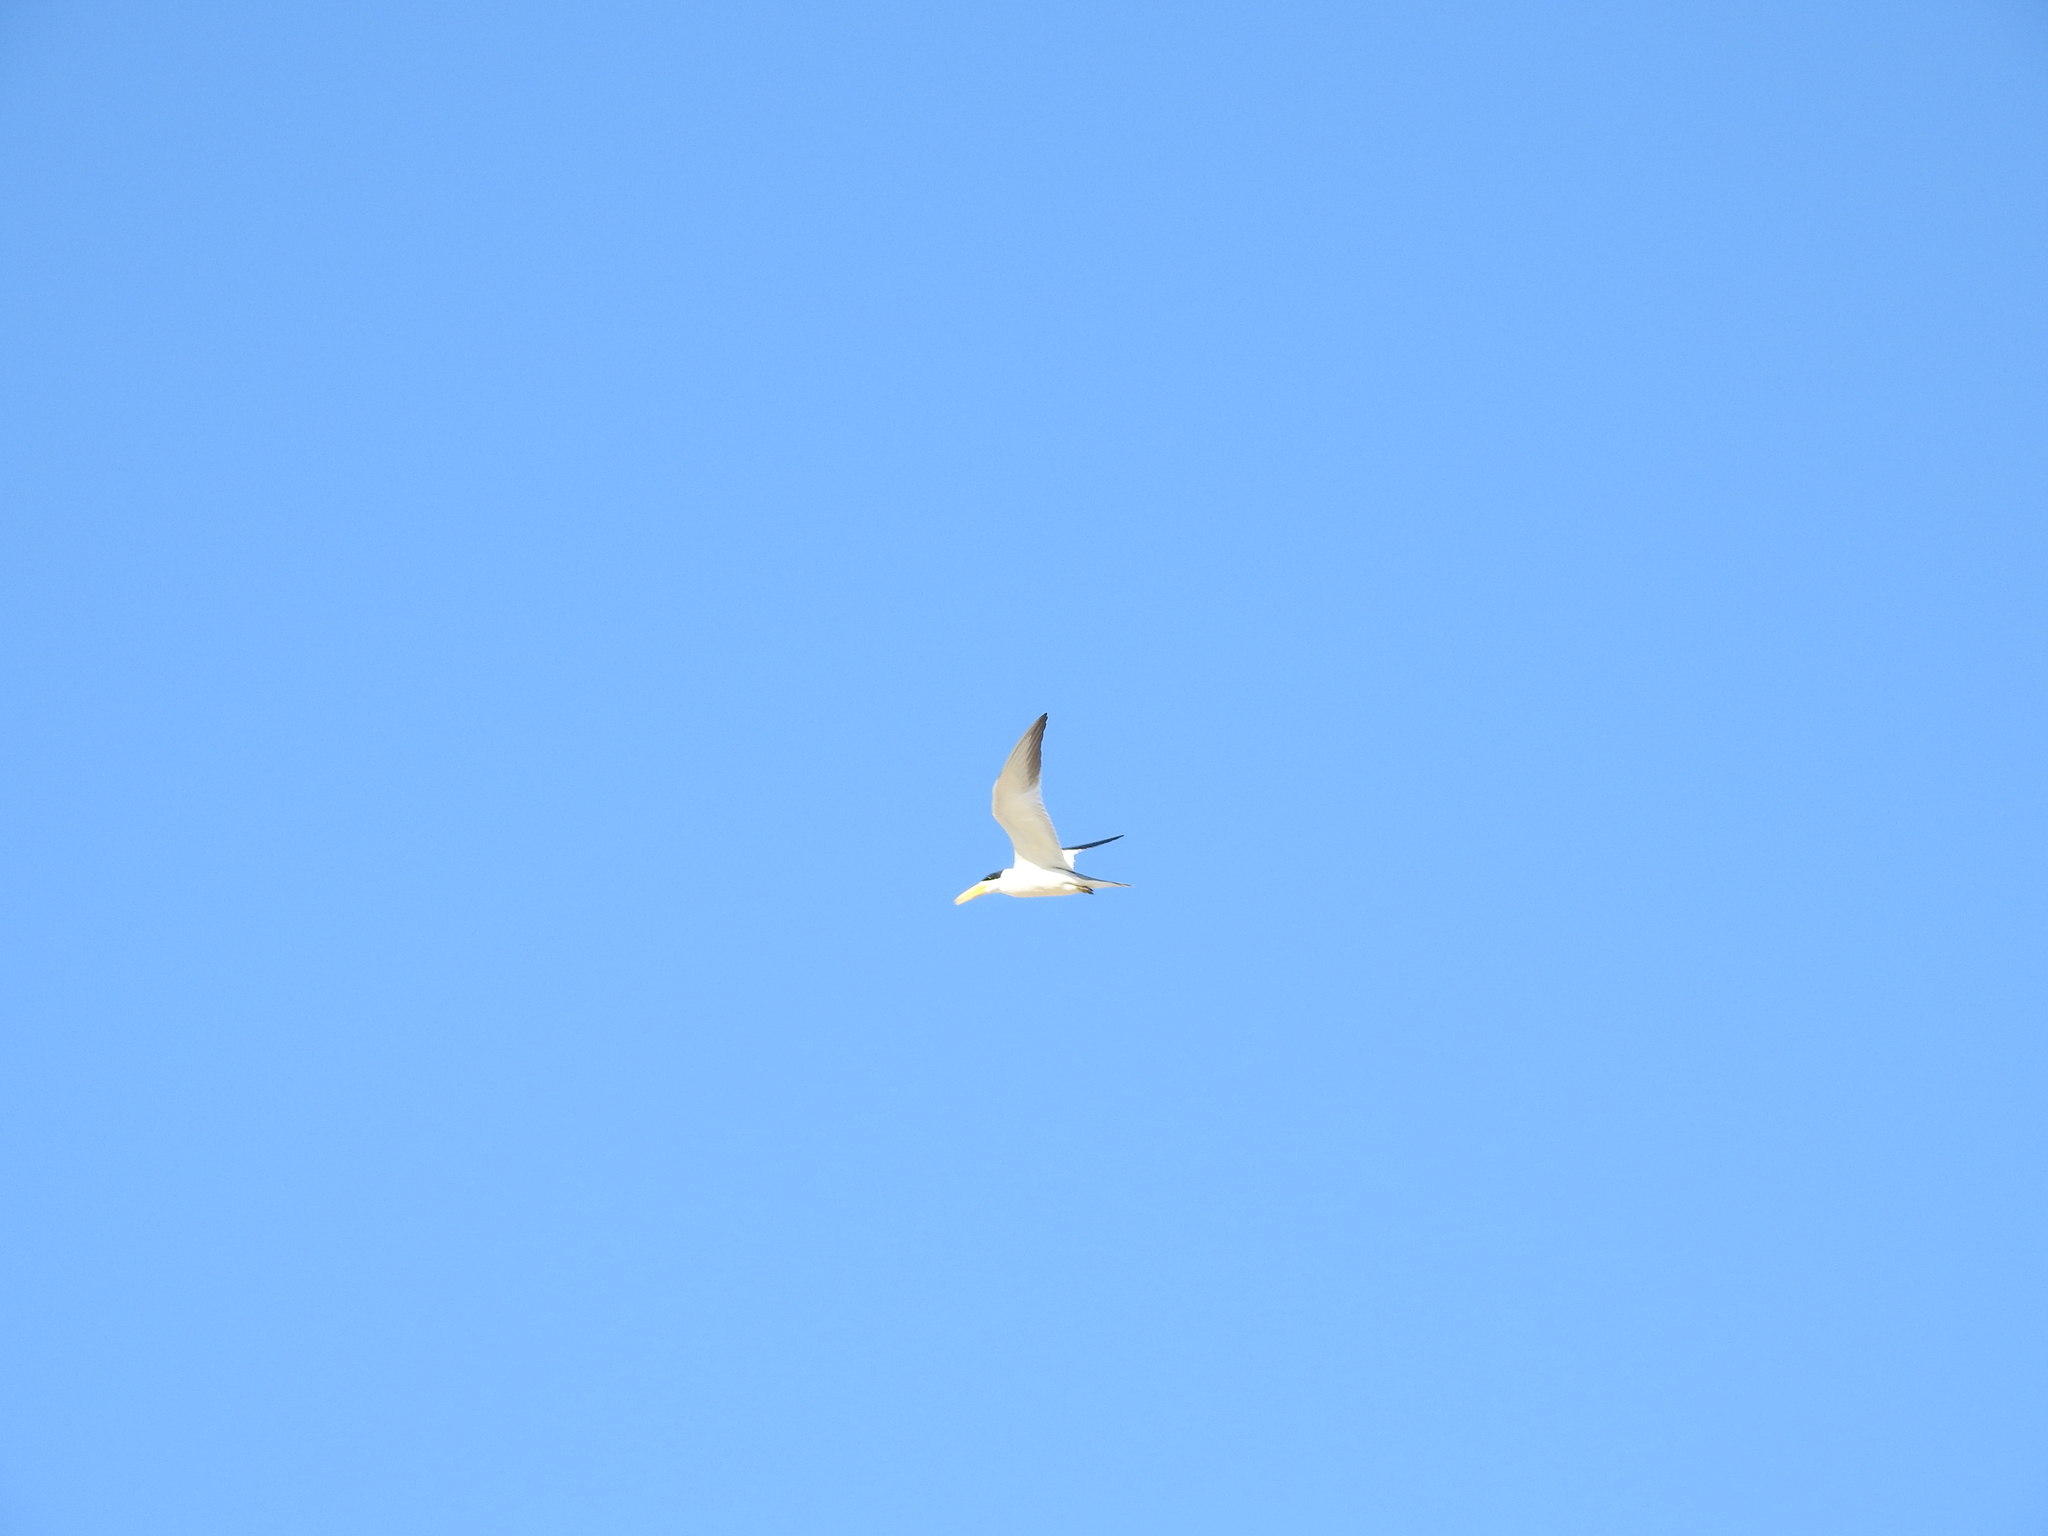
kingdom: Animalia
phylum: Chordata
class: Aves
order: Charadriiformes
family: Laridae
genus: Phaetusa
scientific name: Phaetusa simplex
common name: Large-billed tern
